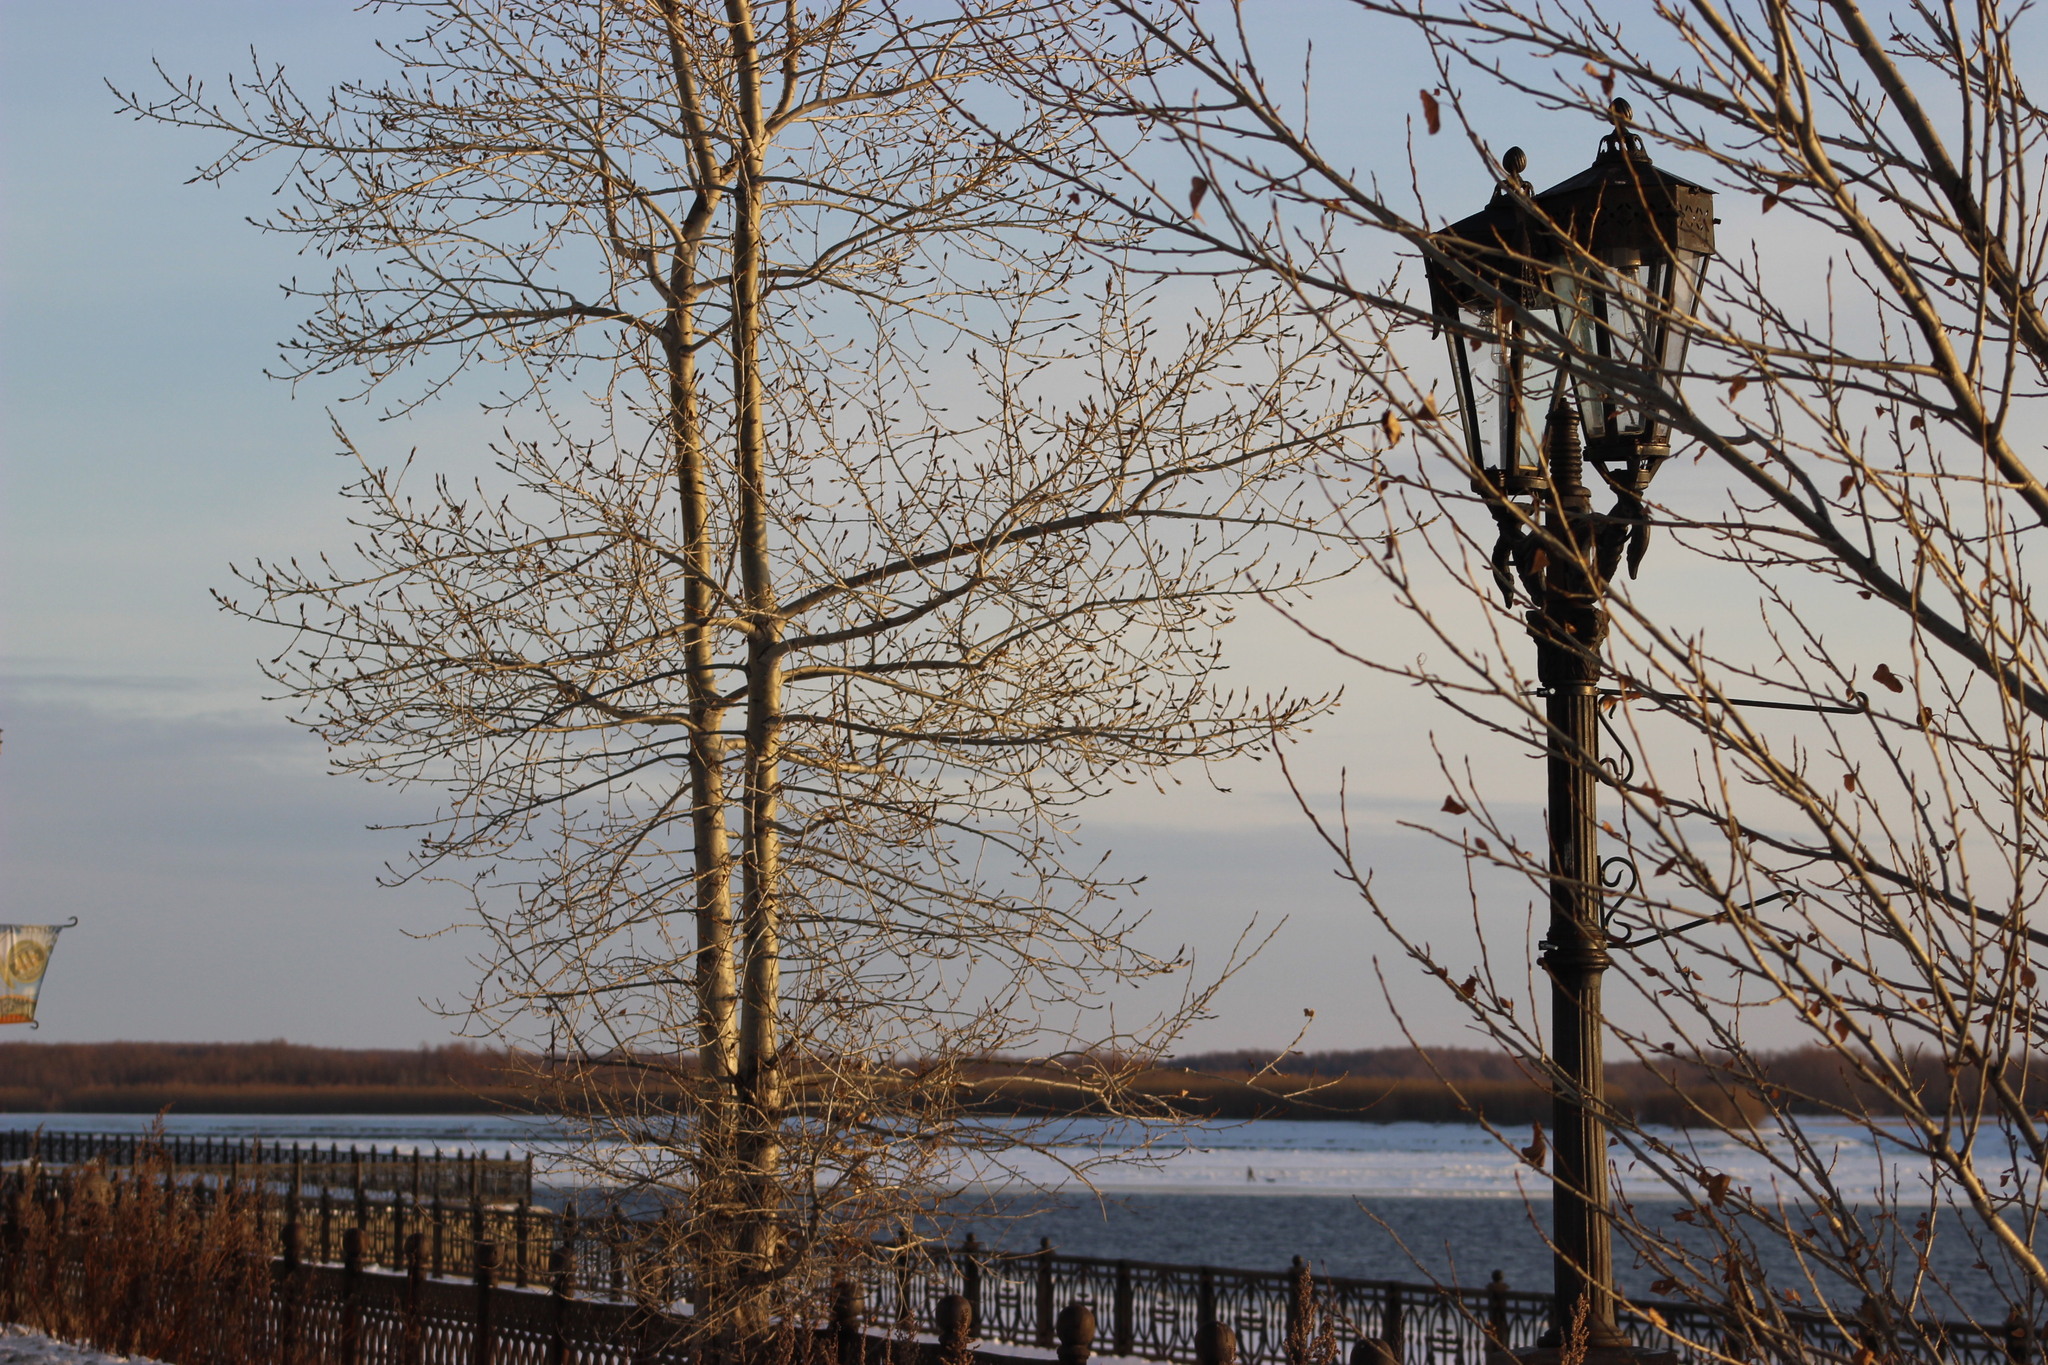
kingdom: Plantae
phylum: Tracheophyta
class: Magnoliopsida
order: Malpighiales
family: Salicaceae
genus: Populus
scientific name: Populus tremula
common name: European aspen
